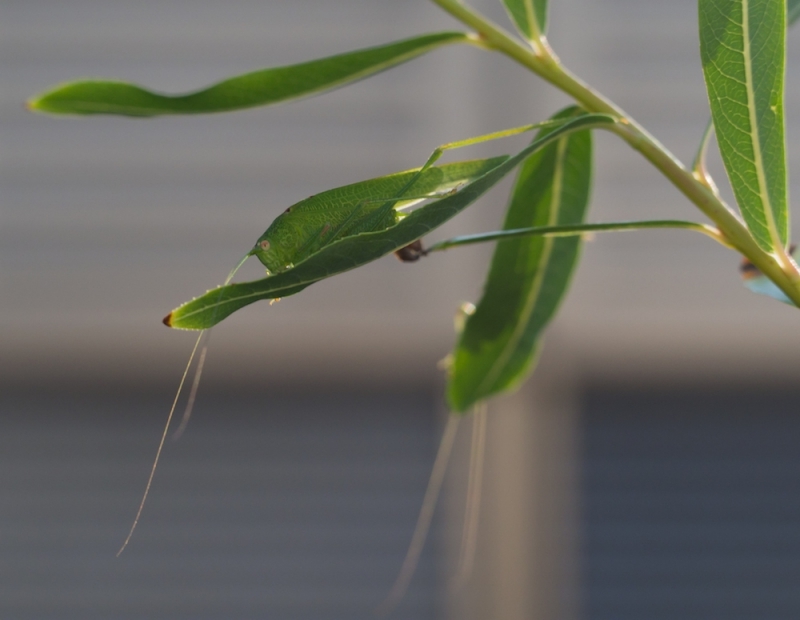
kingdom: Animalia
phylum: Arthropoda
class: Insecta
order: Orthoptera
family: Tettigoniidae
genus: Phaneroptera
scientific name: Phaneroptera nana
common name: Southern sickle bush-cricket
